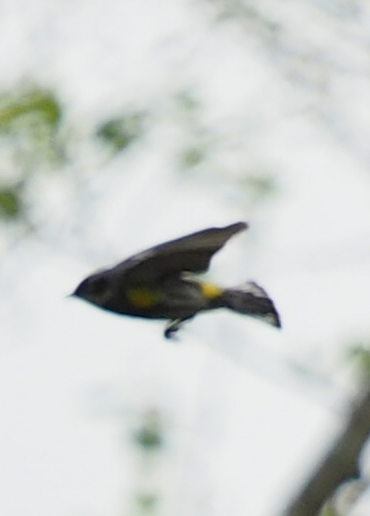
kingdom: Animalia
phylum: Chordata
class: Aves
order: Passeriformes
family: Parulidae
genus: Setophaga
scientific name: Setophaga coronata
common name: Myrtle warbler
